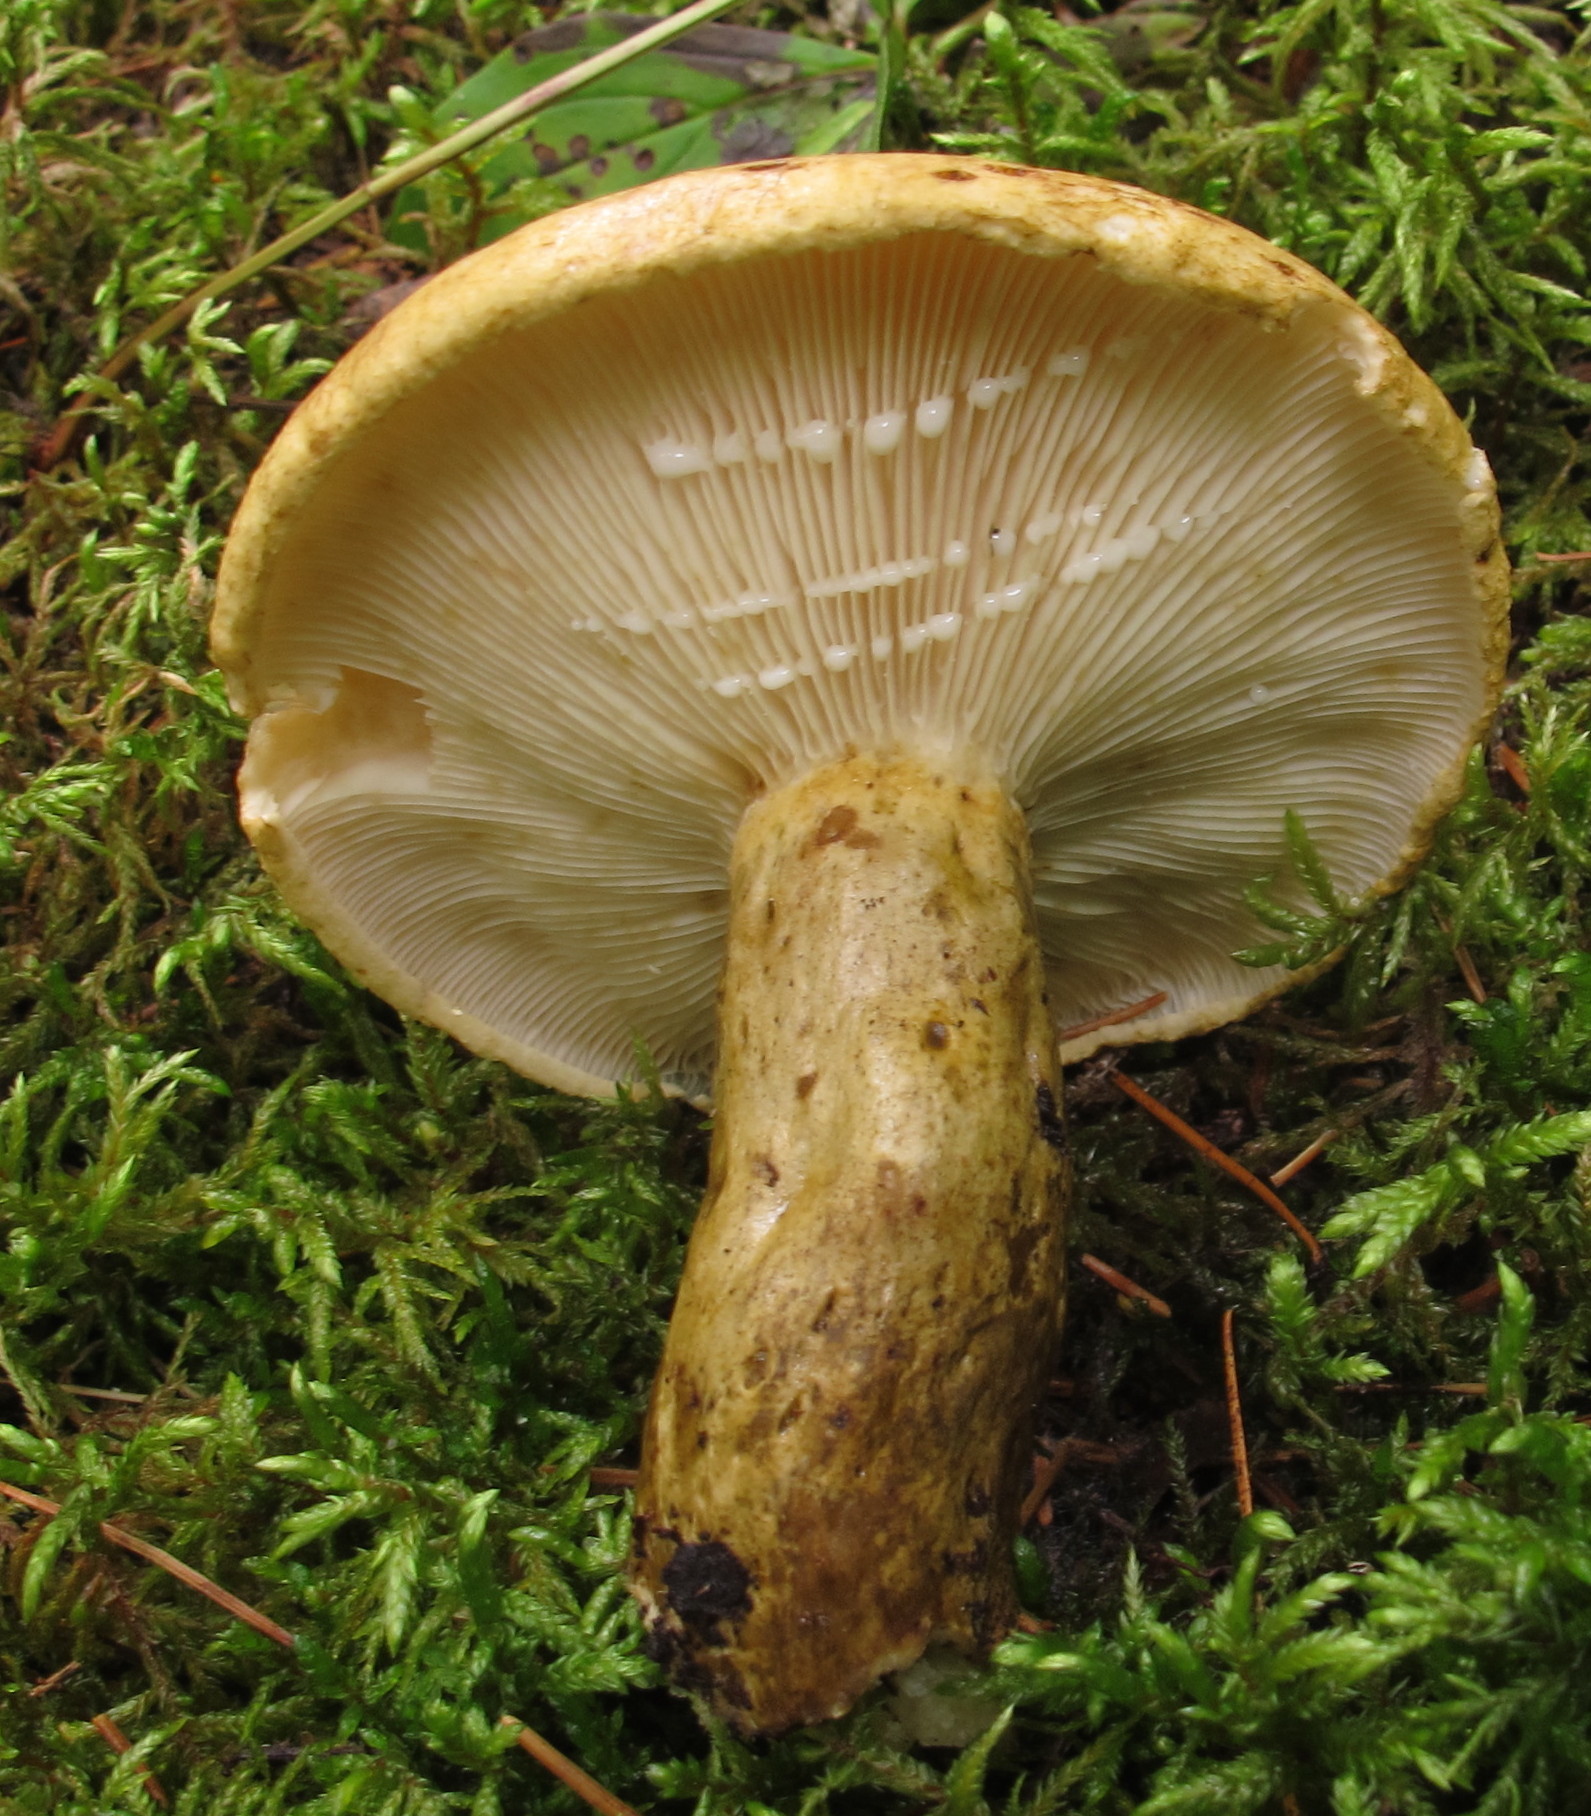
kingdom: Fungi
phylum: Basidiomycota
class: Agaricomycetes
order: Russulales
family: Russulaceae
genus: Lactarius
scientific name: Lactarius sordidus
